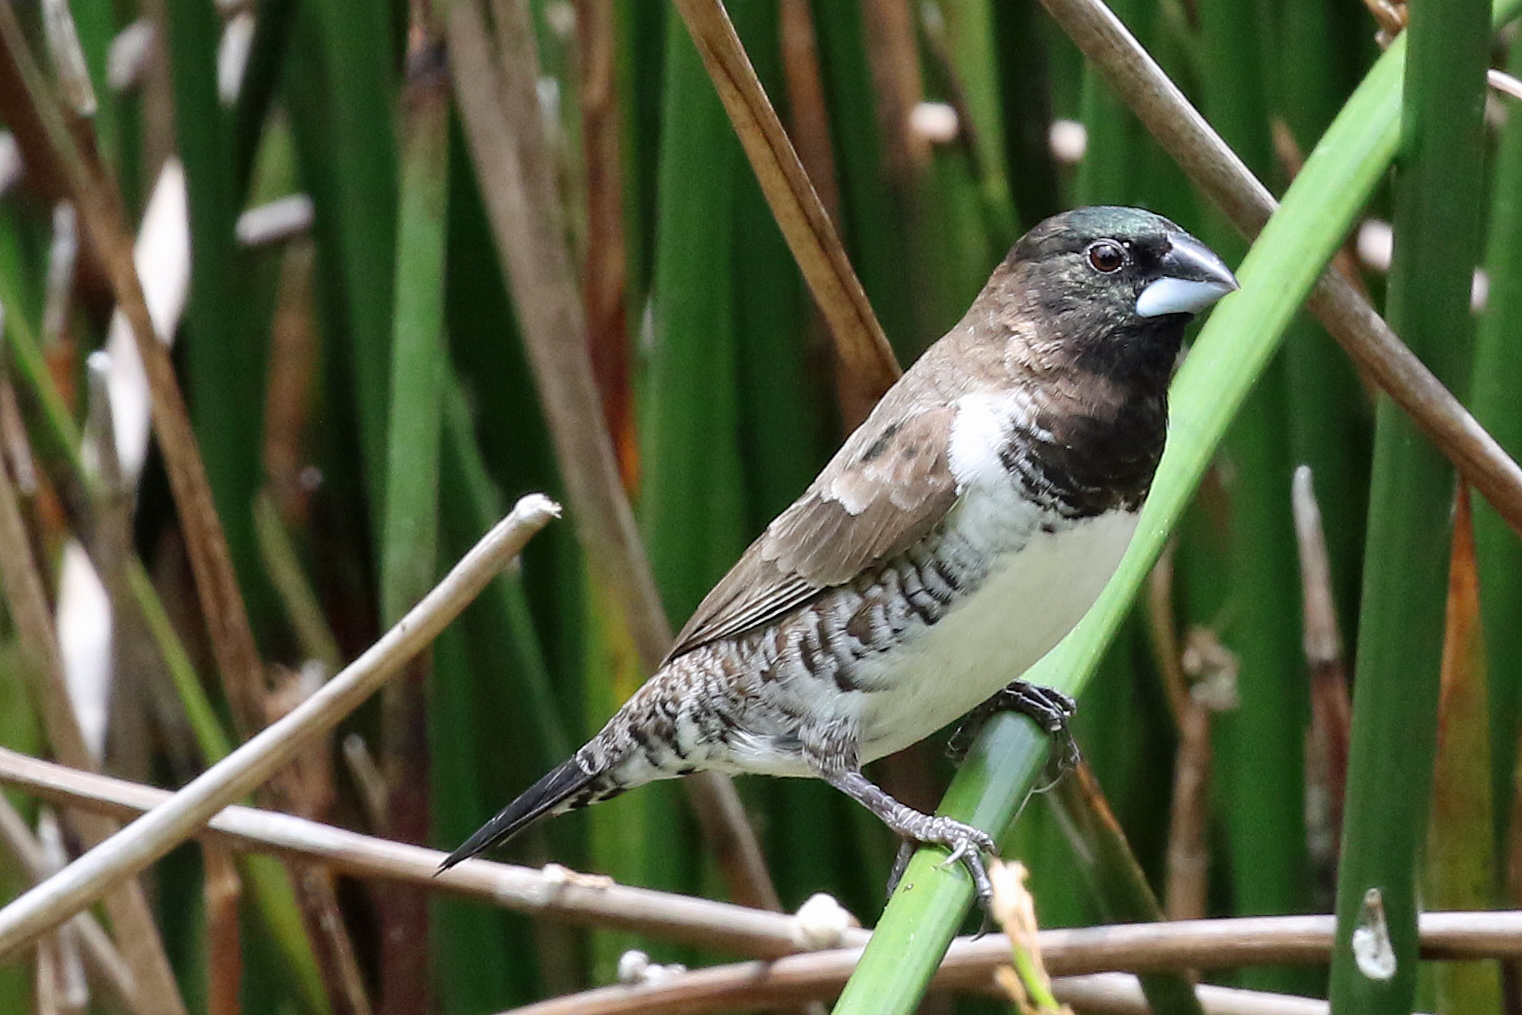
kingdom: Animalia
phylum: Chordata
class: Aves
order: Passeriformes
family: Estrildidae
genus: Lonchura
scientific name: Lonchura cucullata
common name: Bronze mannikin
